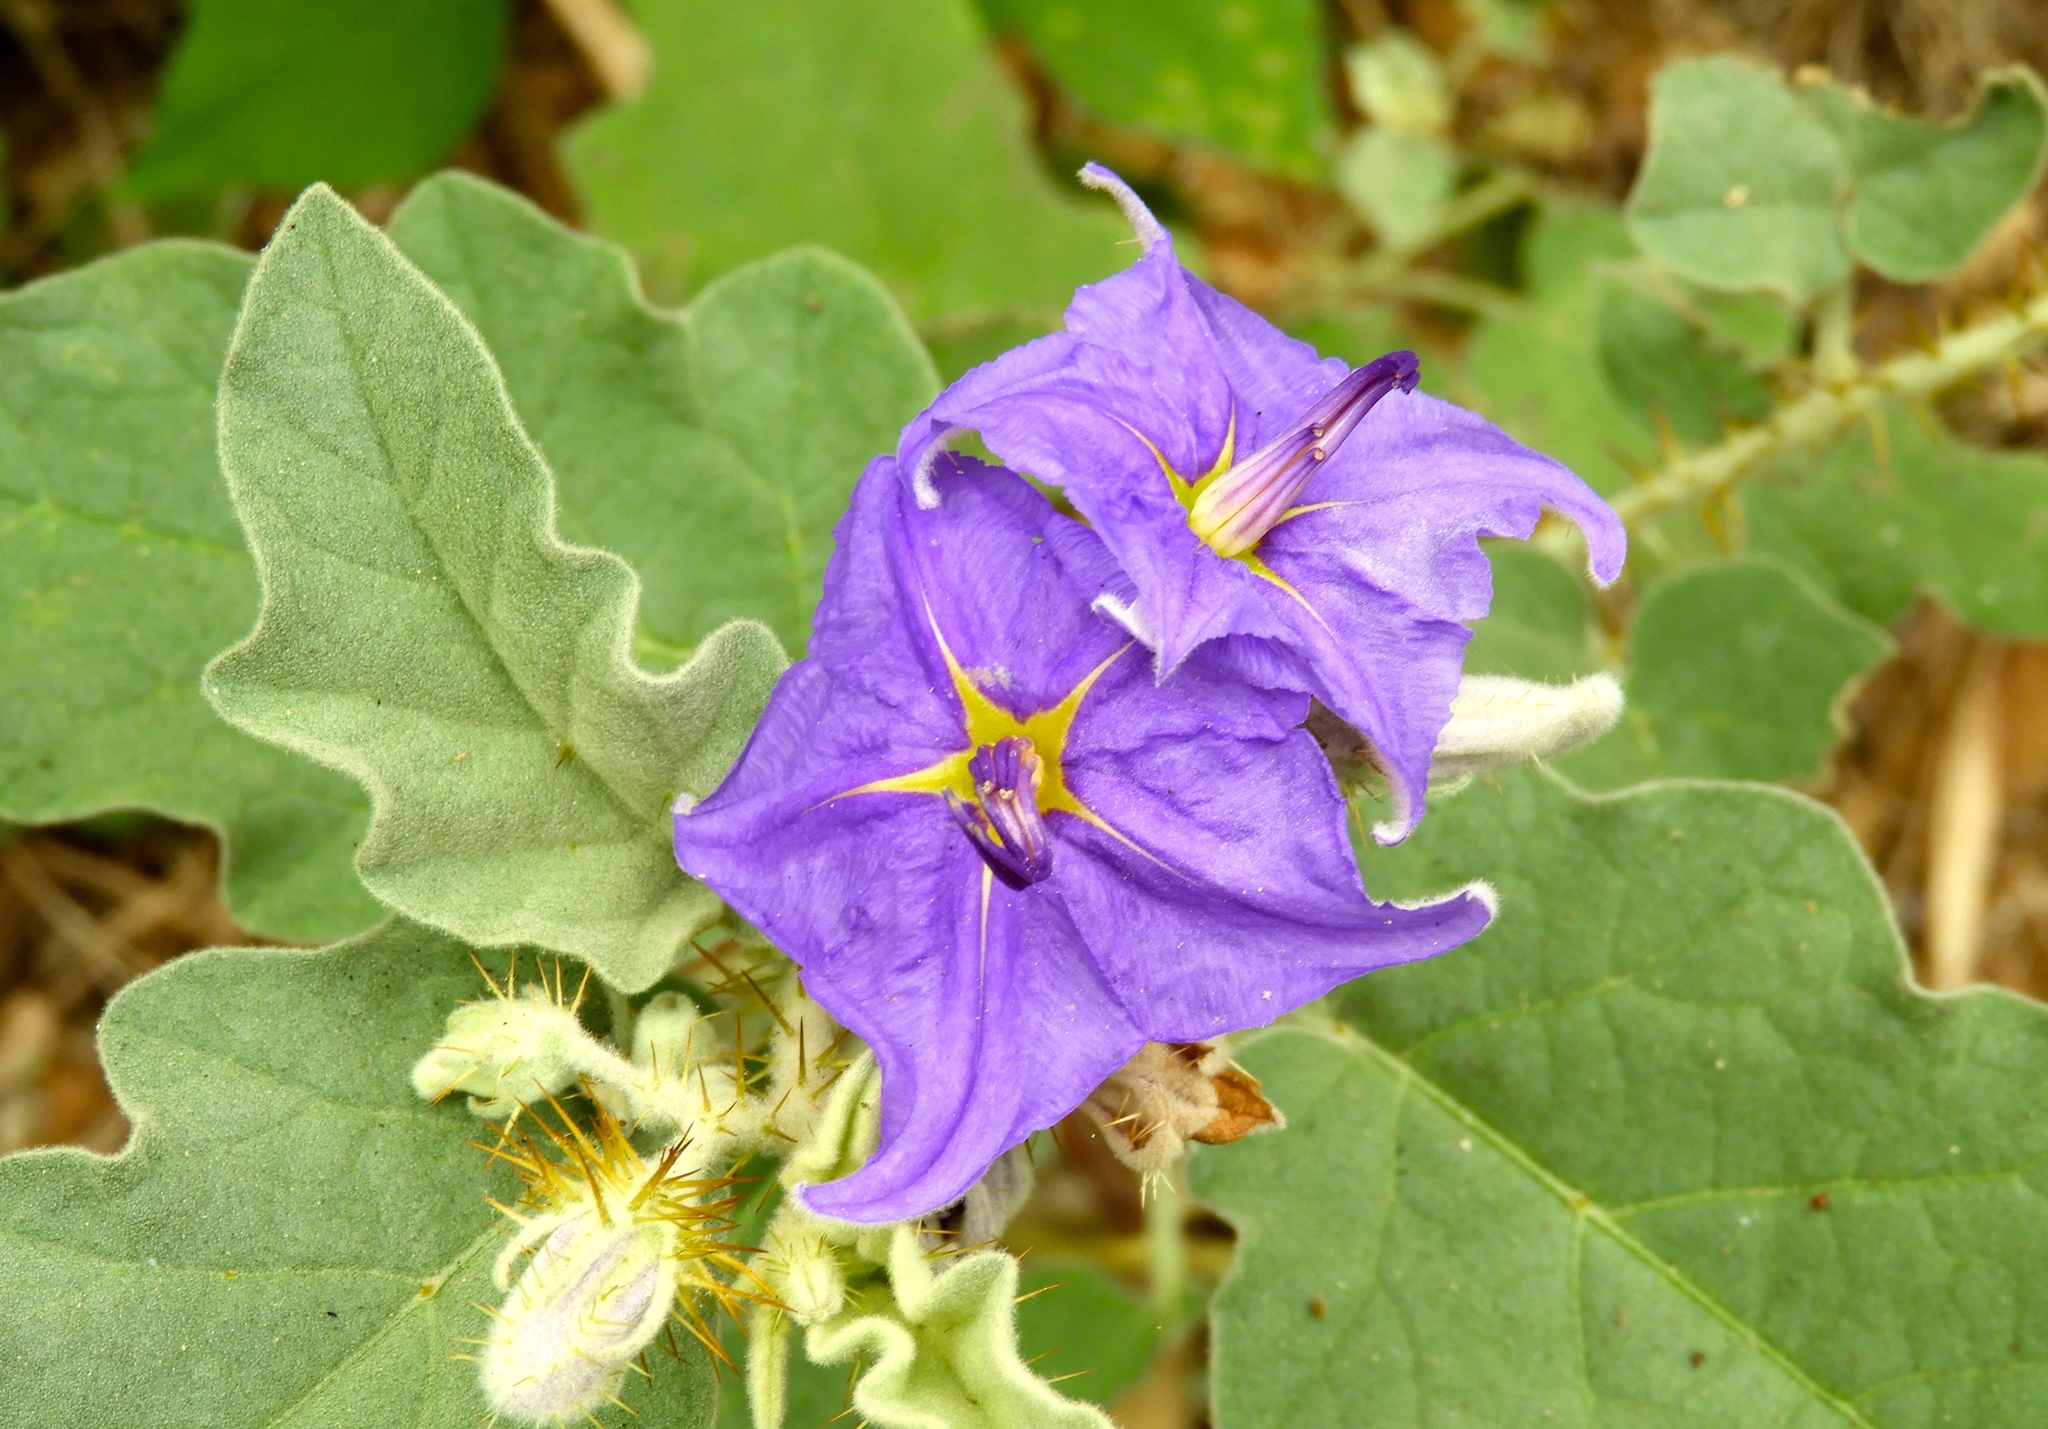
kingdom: Plantae
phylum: Tracheophyta
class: Magnoliopsida
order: Solanales
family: Solanaceae
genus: Solanum
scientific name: Solanum houstonii
